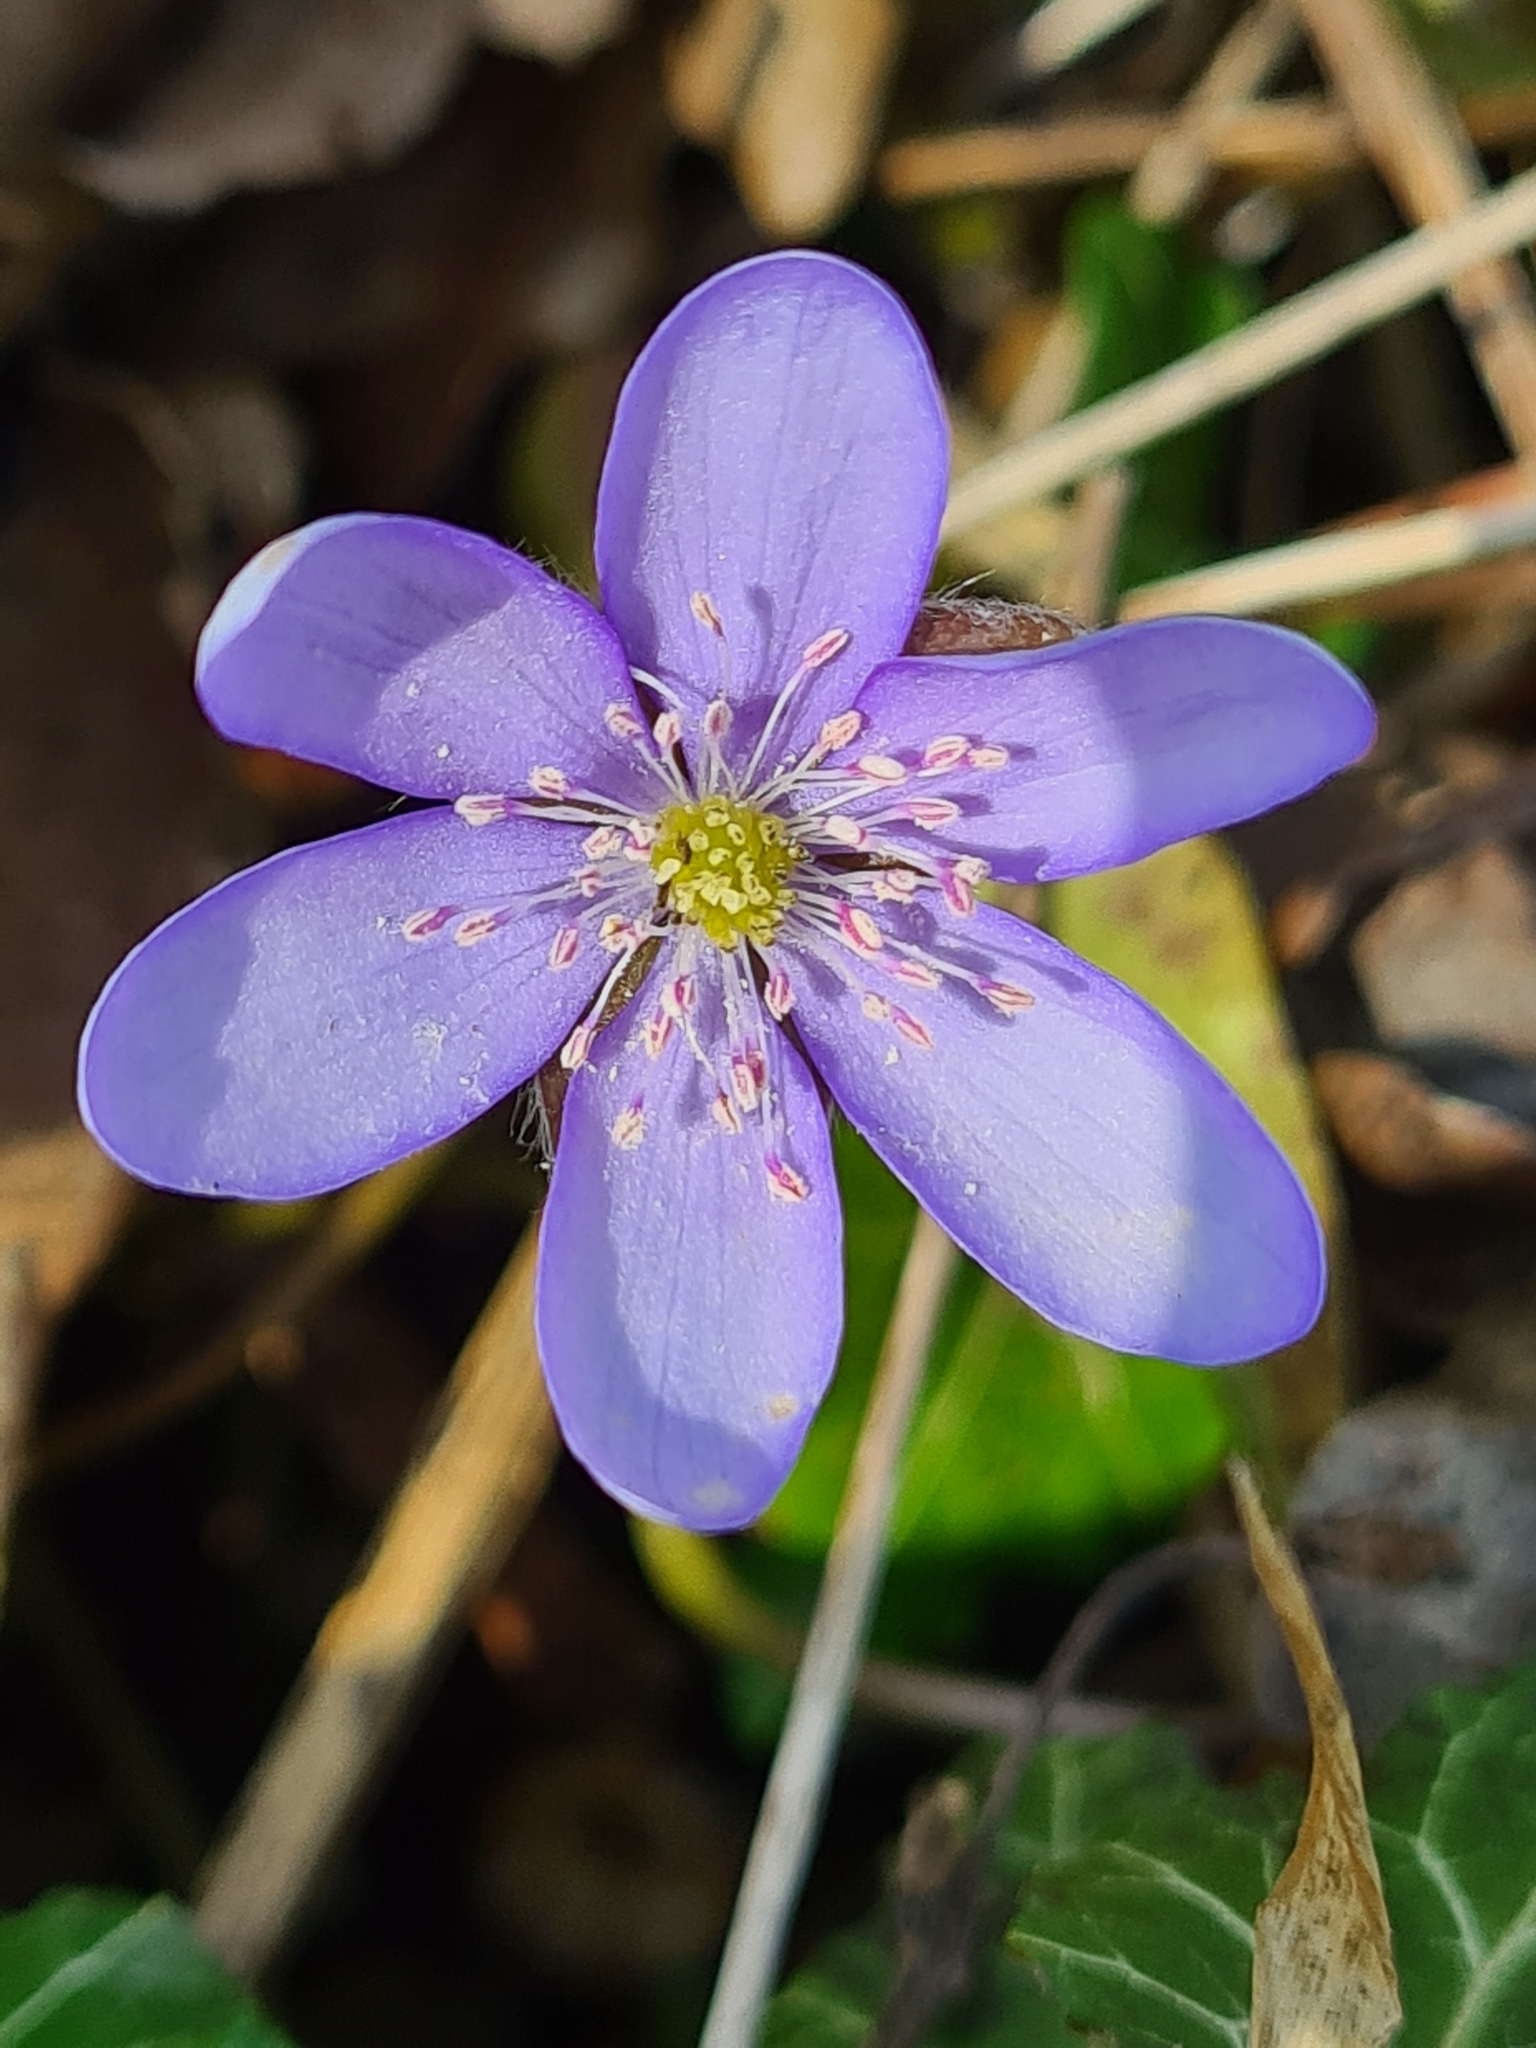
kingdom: Plantae
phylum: Tracheophyta
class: Magnoliopsida
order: Ranunculales
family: Ranunculaceae
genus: Hepatica
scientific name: Hepatica nobilis
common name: Liverleaf
